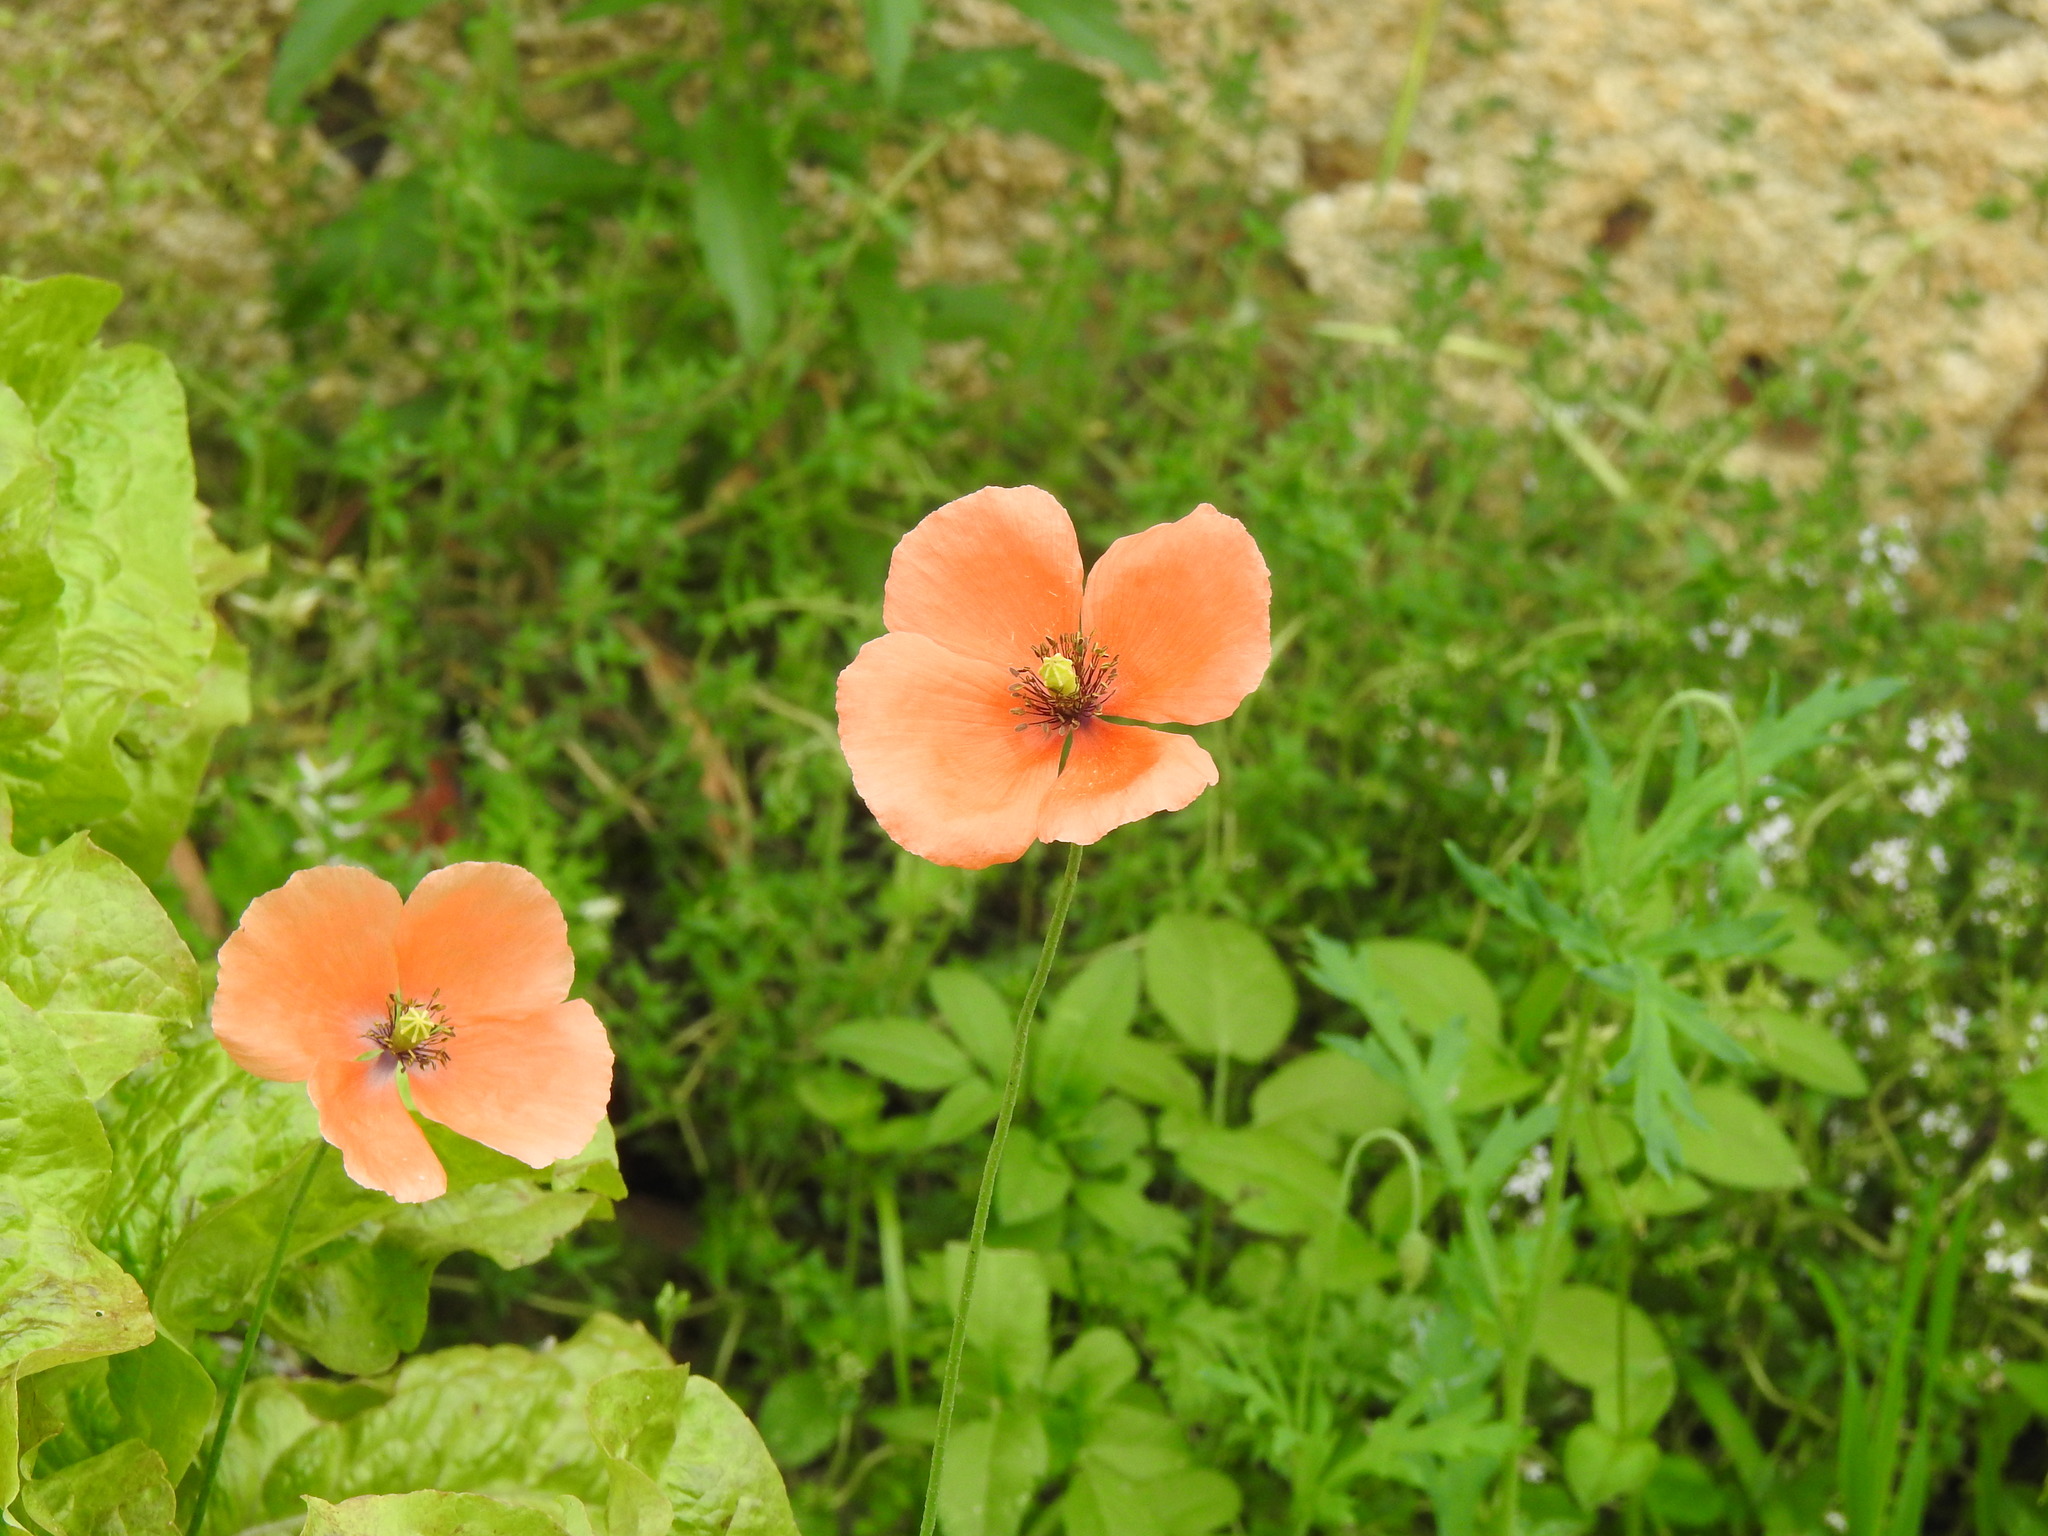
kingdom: Plantae
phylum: Tracheophyta
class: Magnoliopsida
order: Ranunculales
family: Papaveraceae
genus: Papaver
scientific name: Papaver dubium
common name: Long-headed poppy
